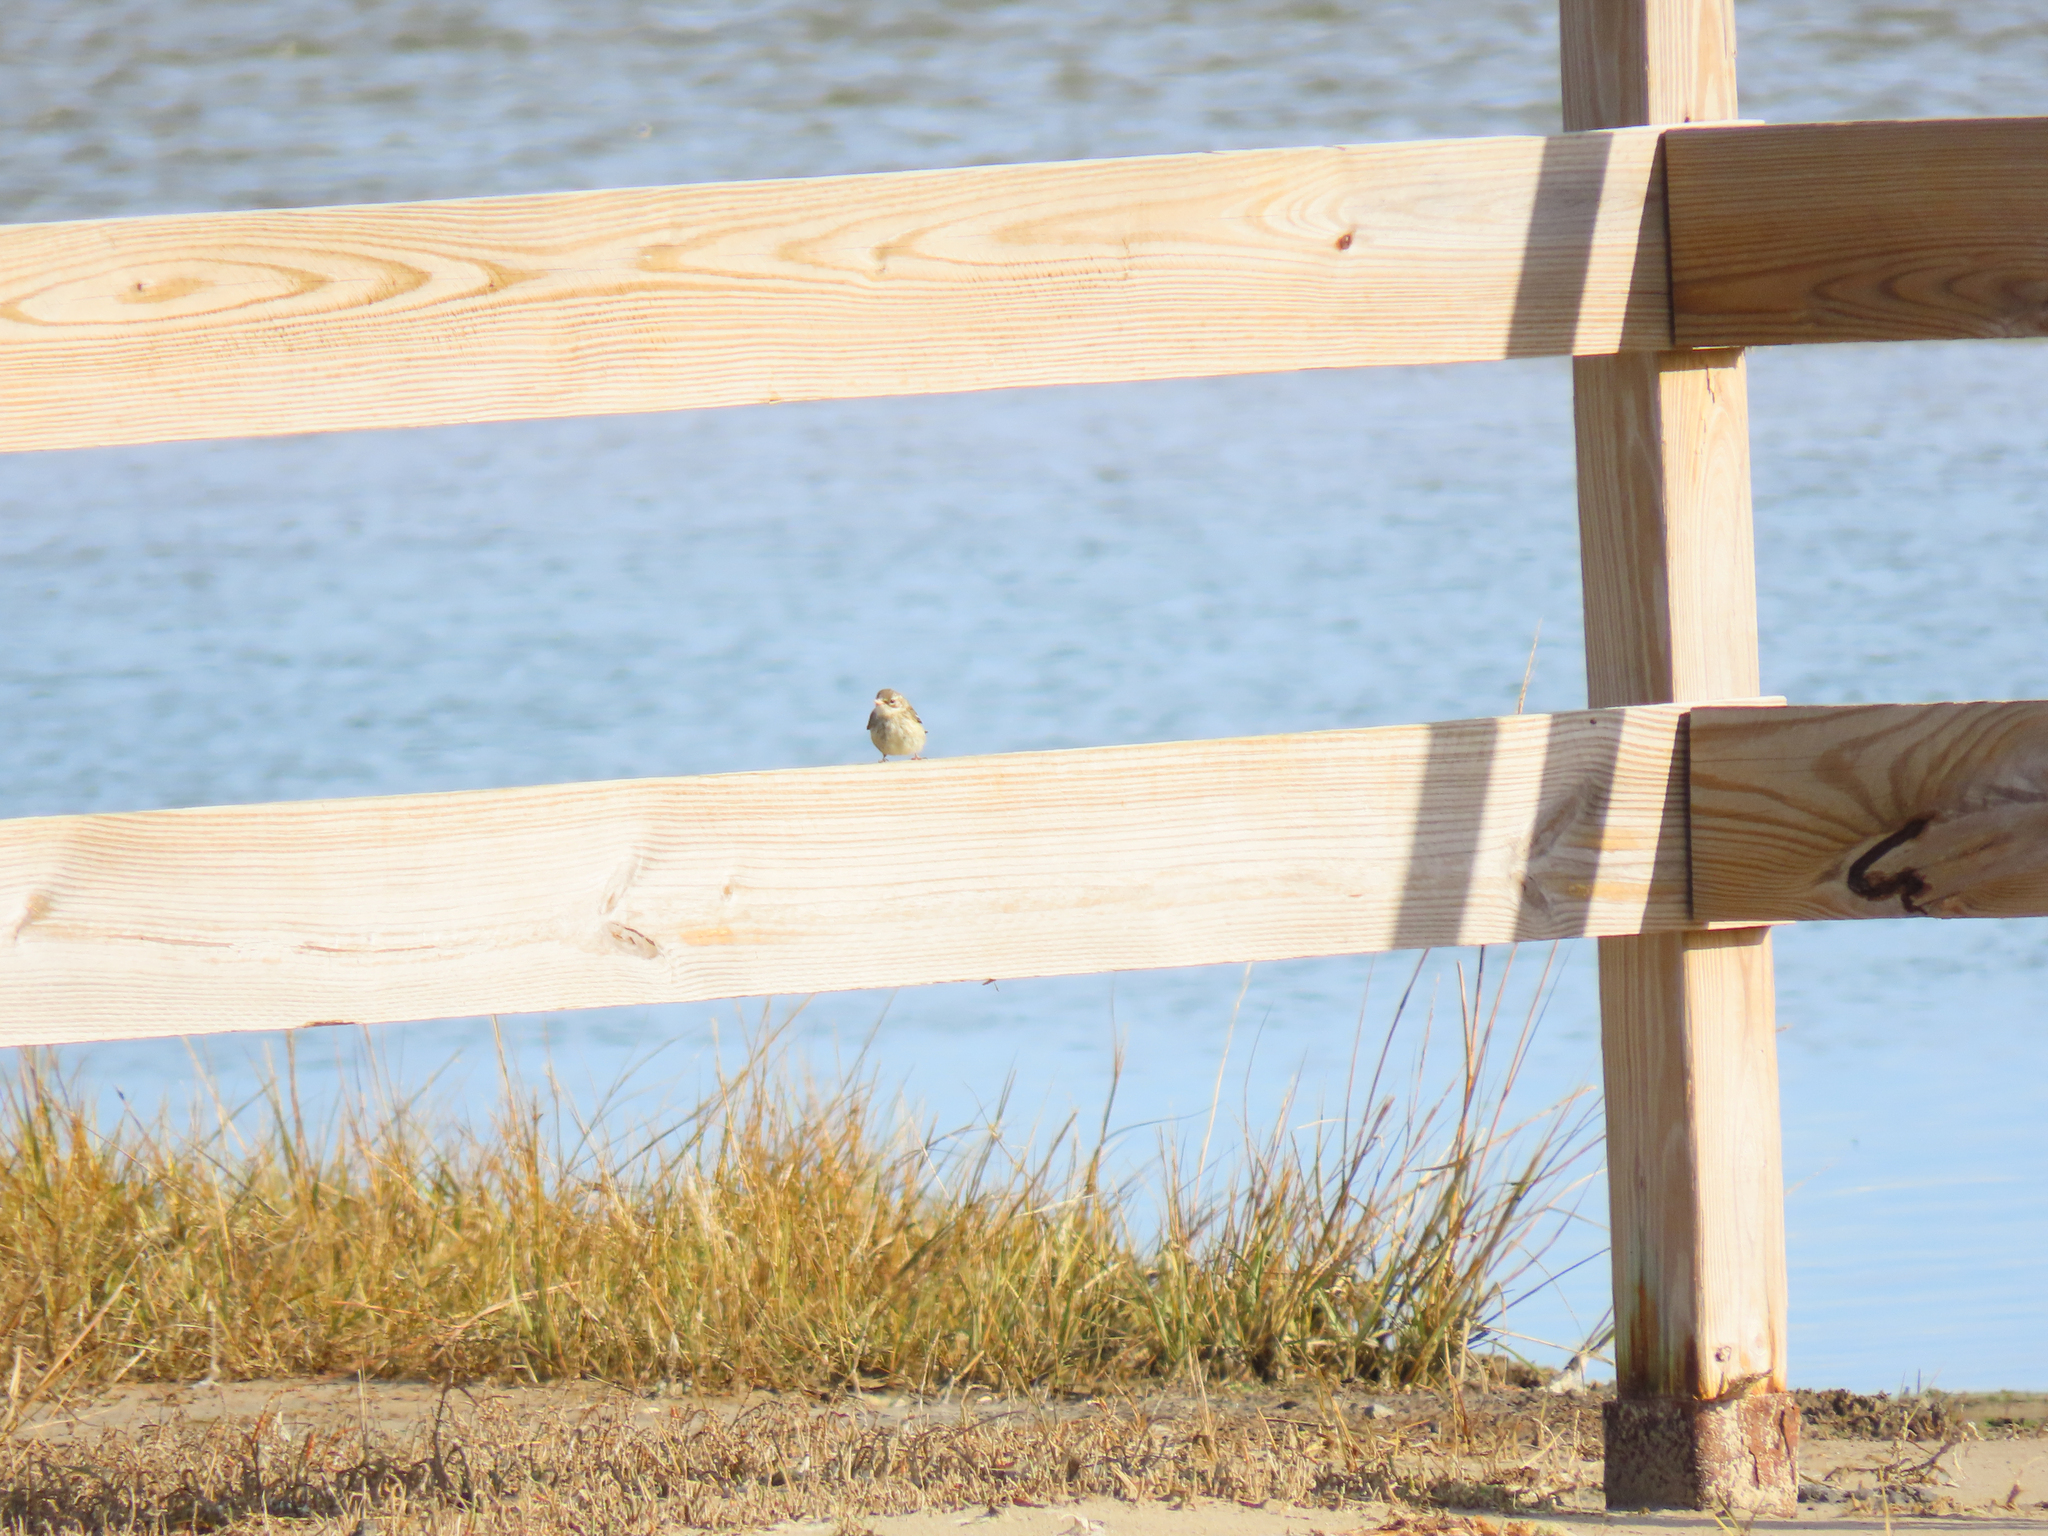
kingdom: Animalia
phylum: Chordata
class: Aves
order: Passeriformes
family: Parulidae
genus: Setophaga
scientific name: Setophaga coronata
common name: Myrtle warbler
